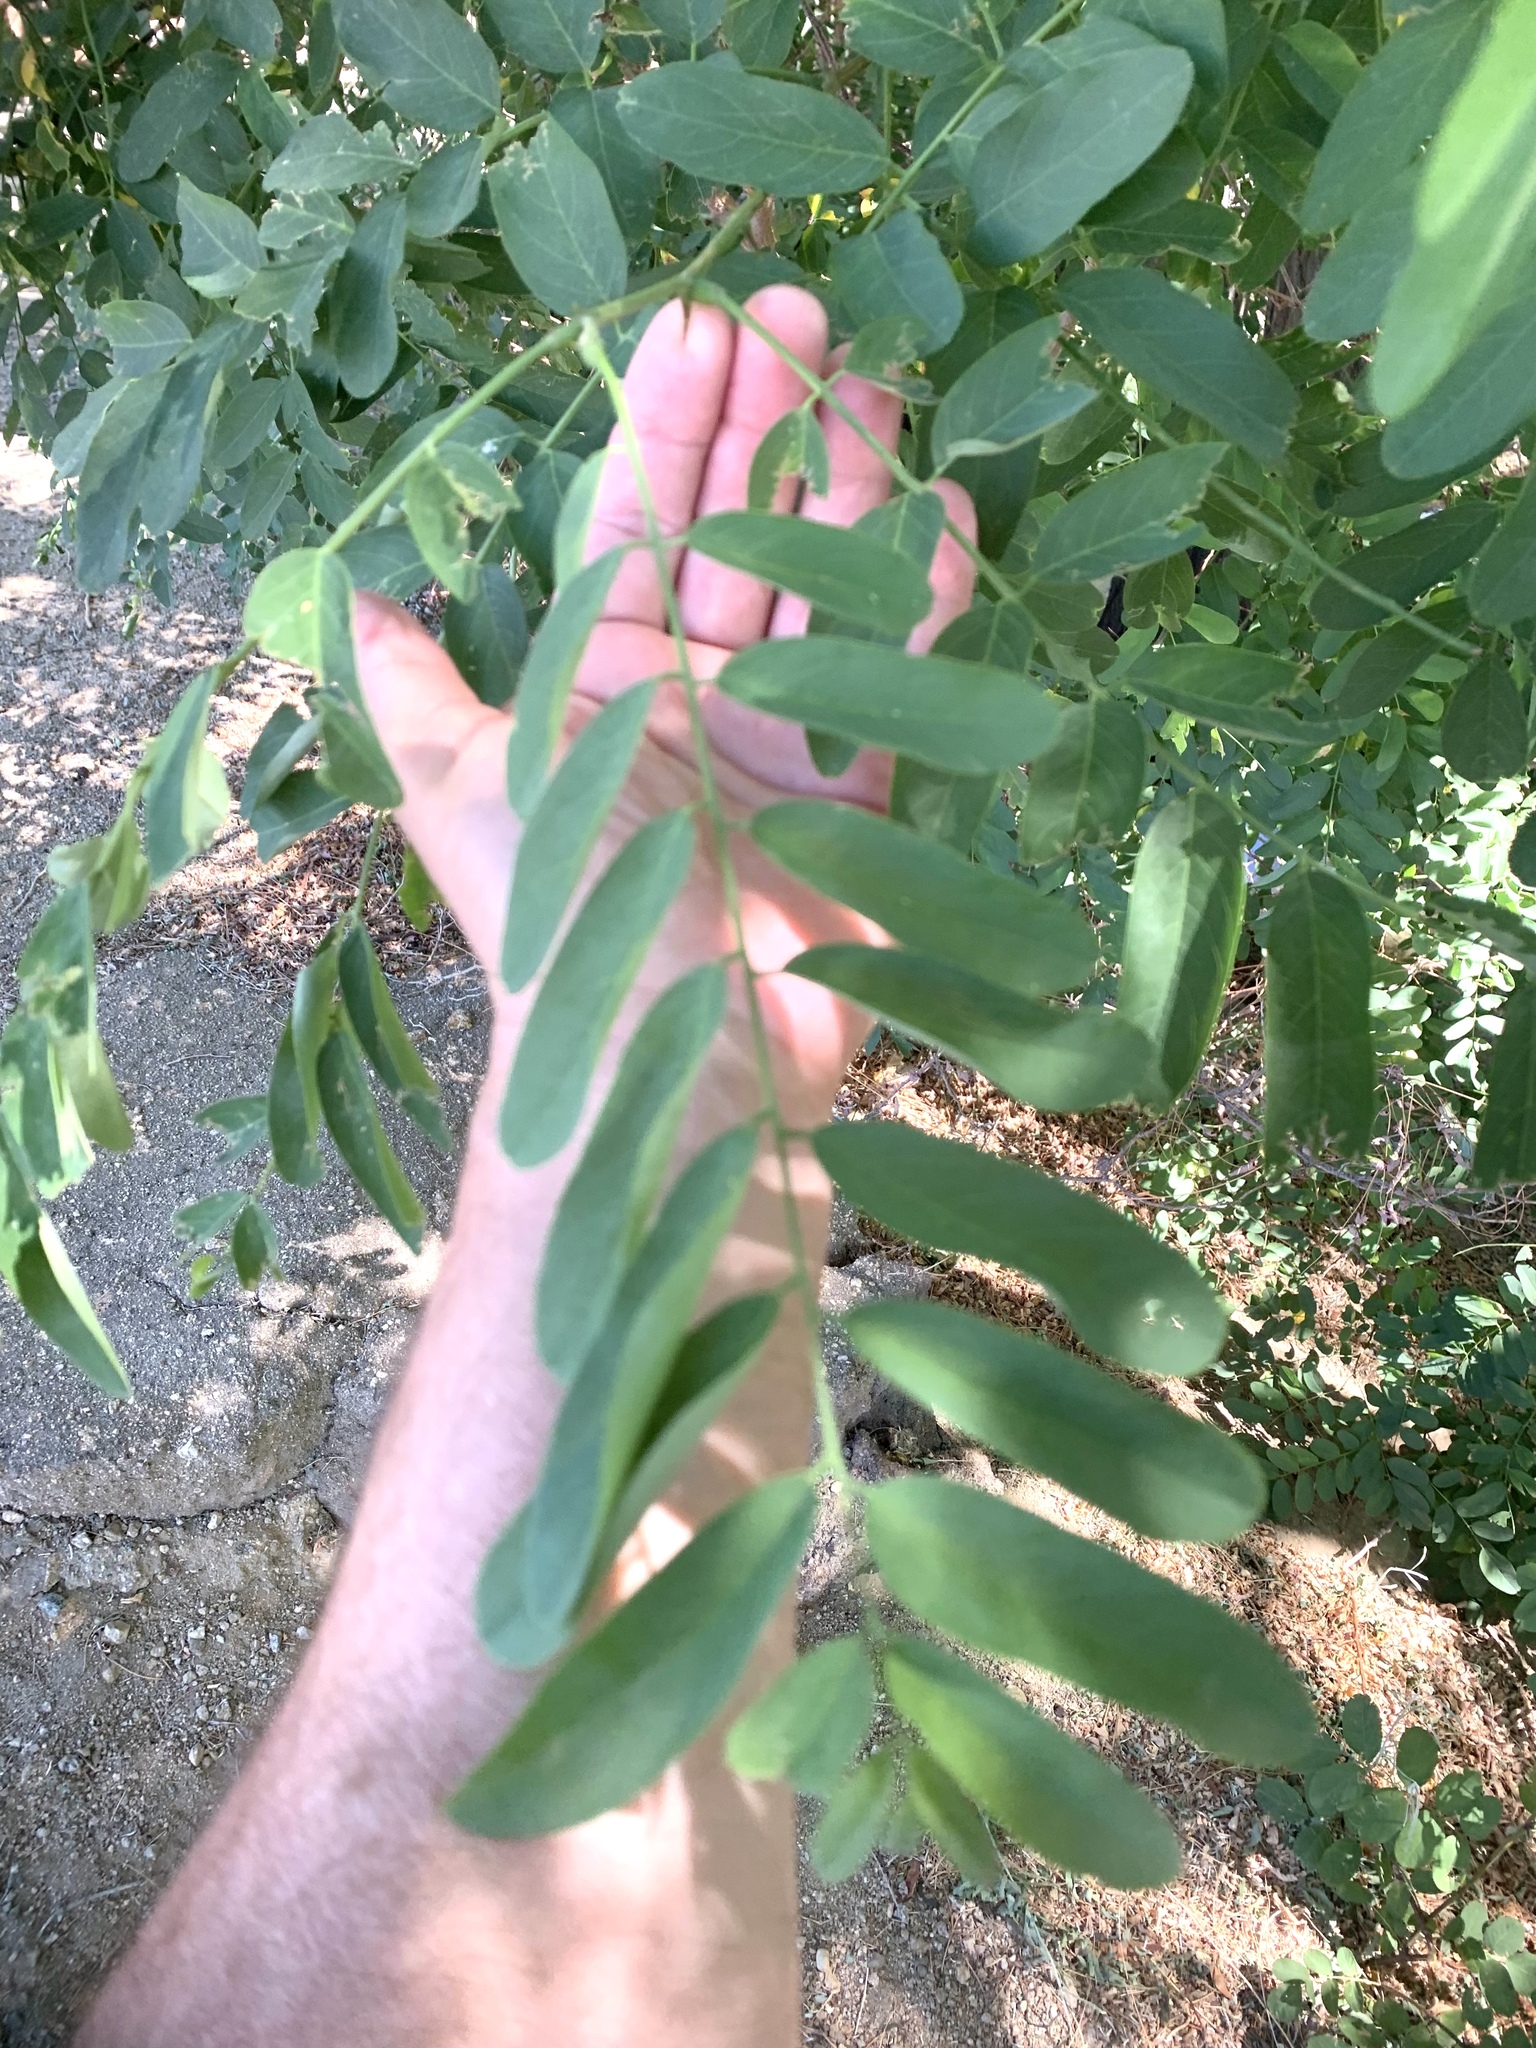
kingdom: Plantae
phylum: Tracheophyta
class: Magnoliopsida
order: Fabales
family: Fabaceae
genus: Robinia
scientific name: Robinia pseudoacacia
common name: Black locust
